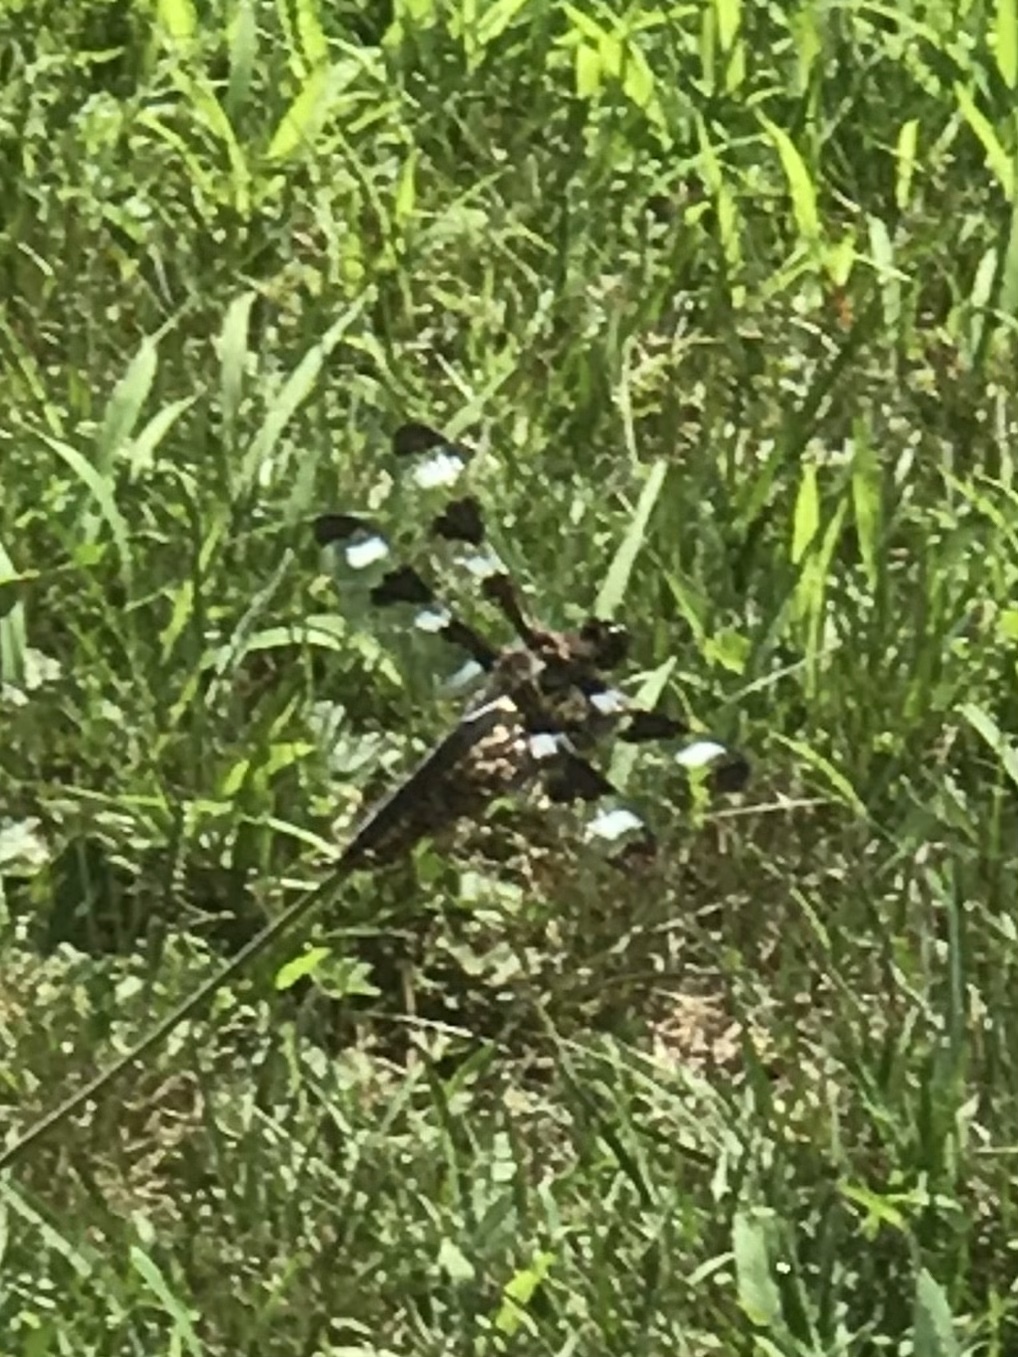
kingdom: Animalia
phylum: Arthropoda
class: Insecta
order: Odonata
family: Libellulidae
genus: Libellula
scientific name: Libellula pulchella
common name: Twelve-spotted skimmer
